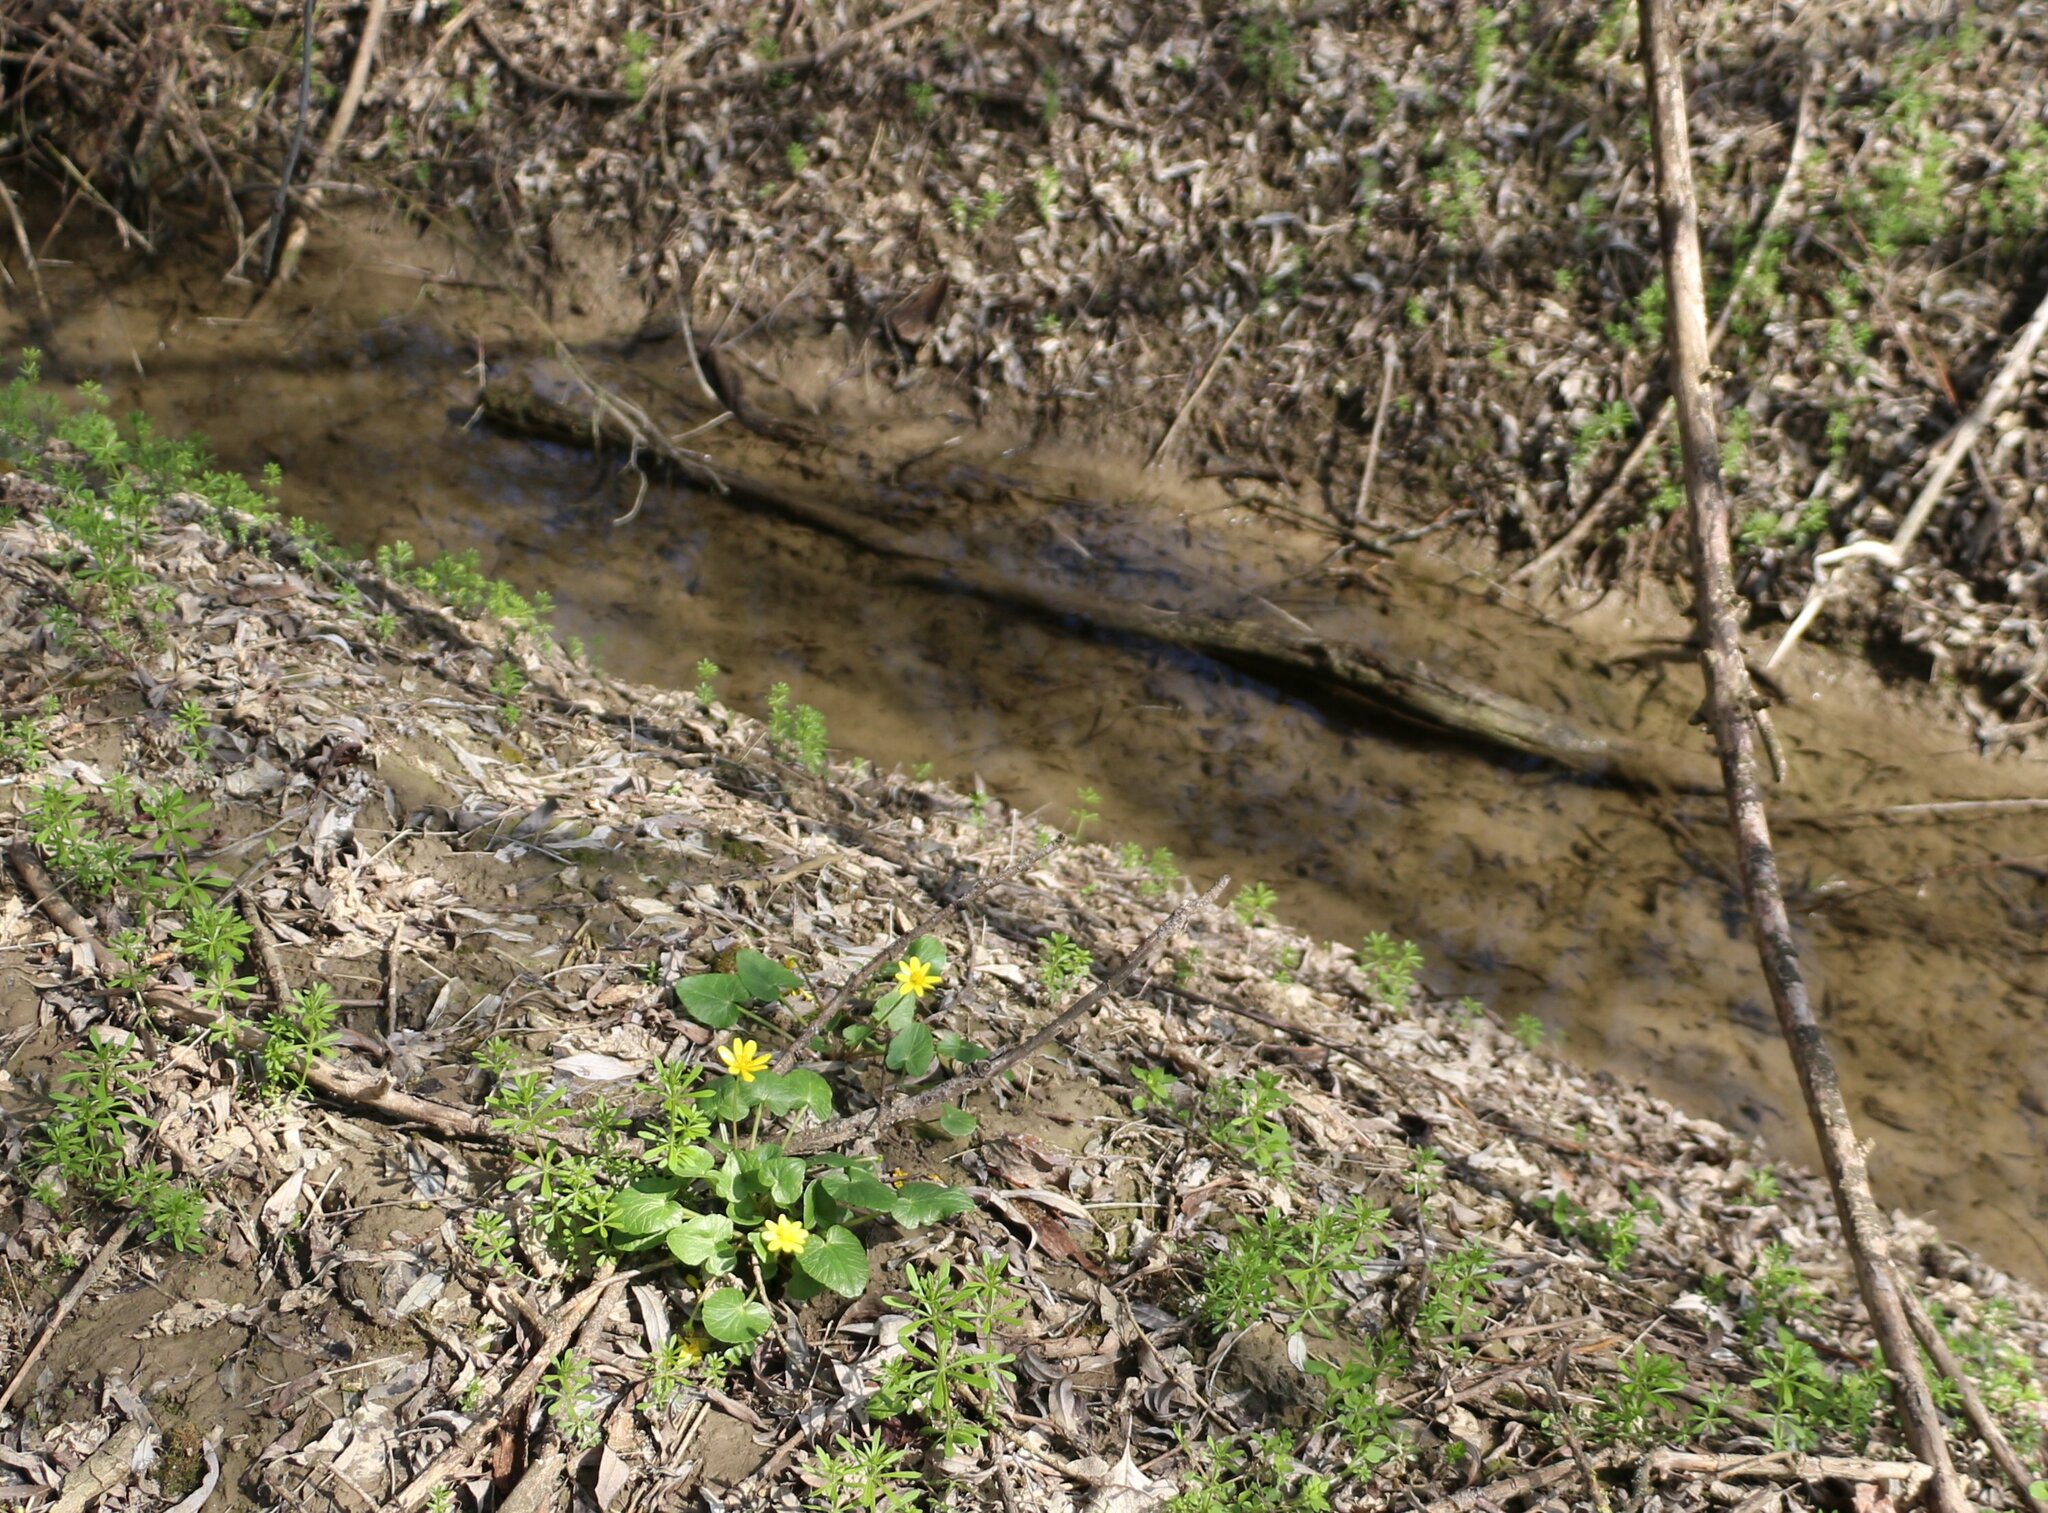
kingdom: Plantae
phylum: Tracheophyta
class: Magnoliopsida
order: Ranunculales
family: Ranunculaceae
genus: Ficaria
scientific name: Ficaria verna
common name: Lesser celandine
